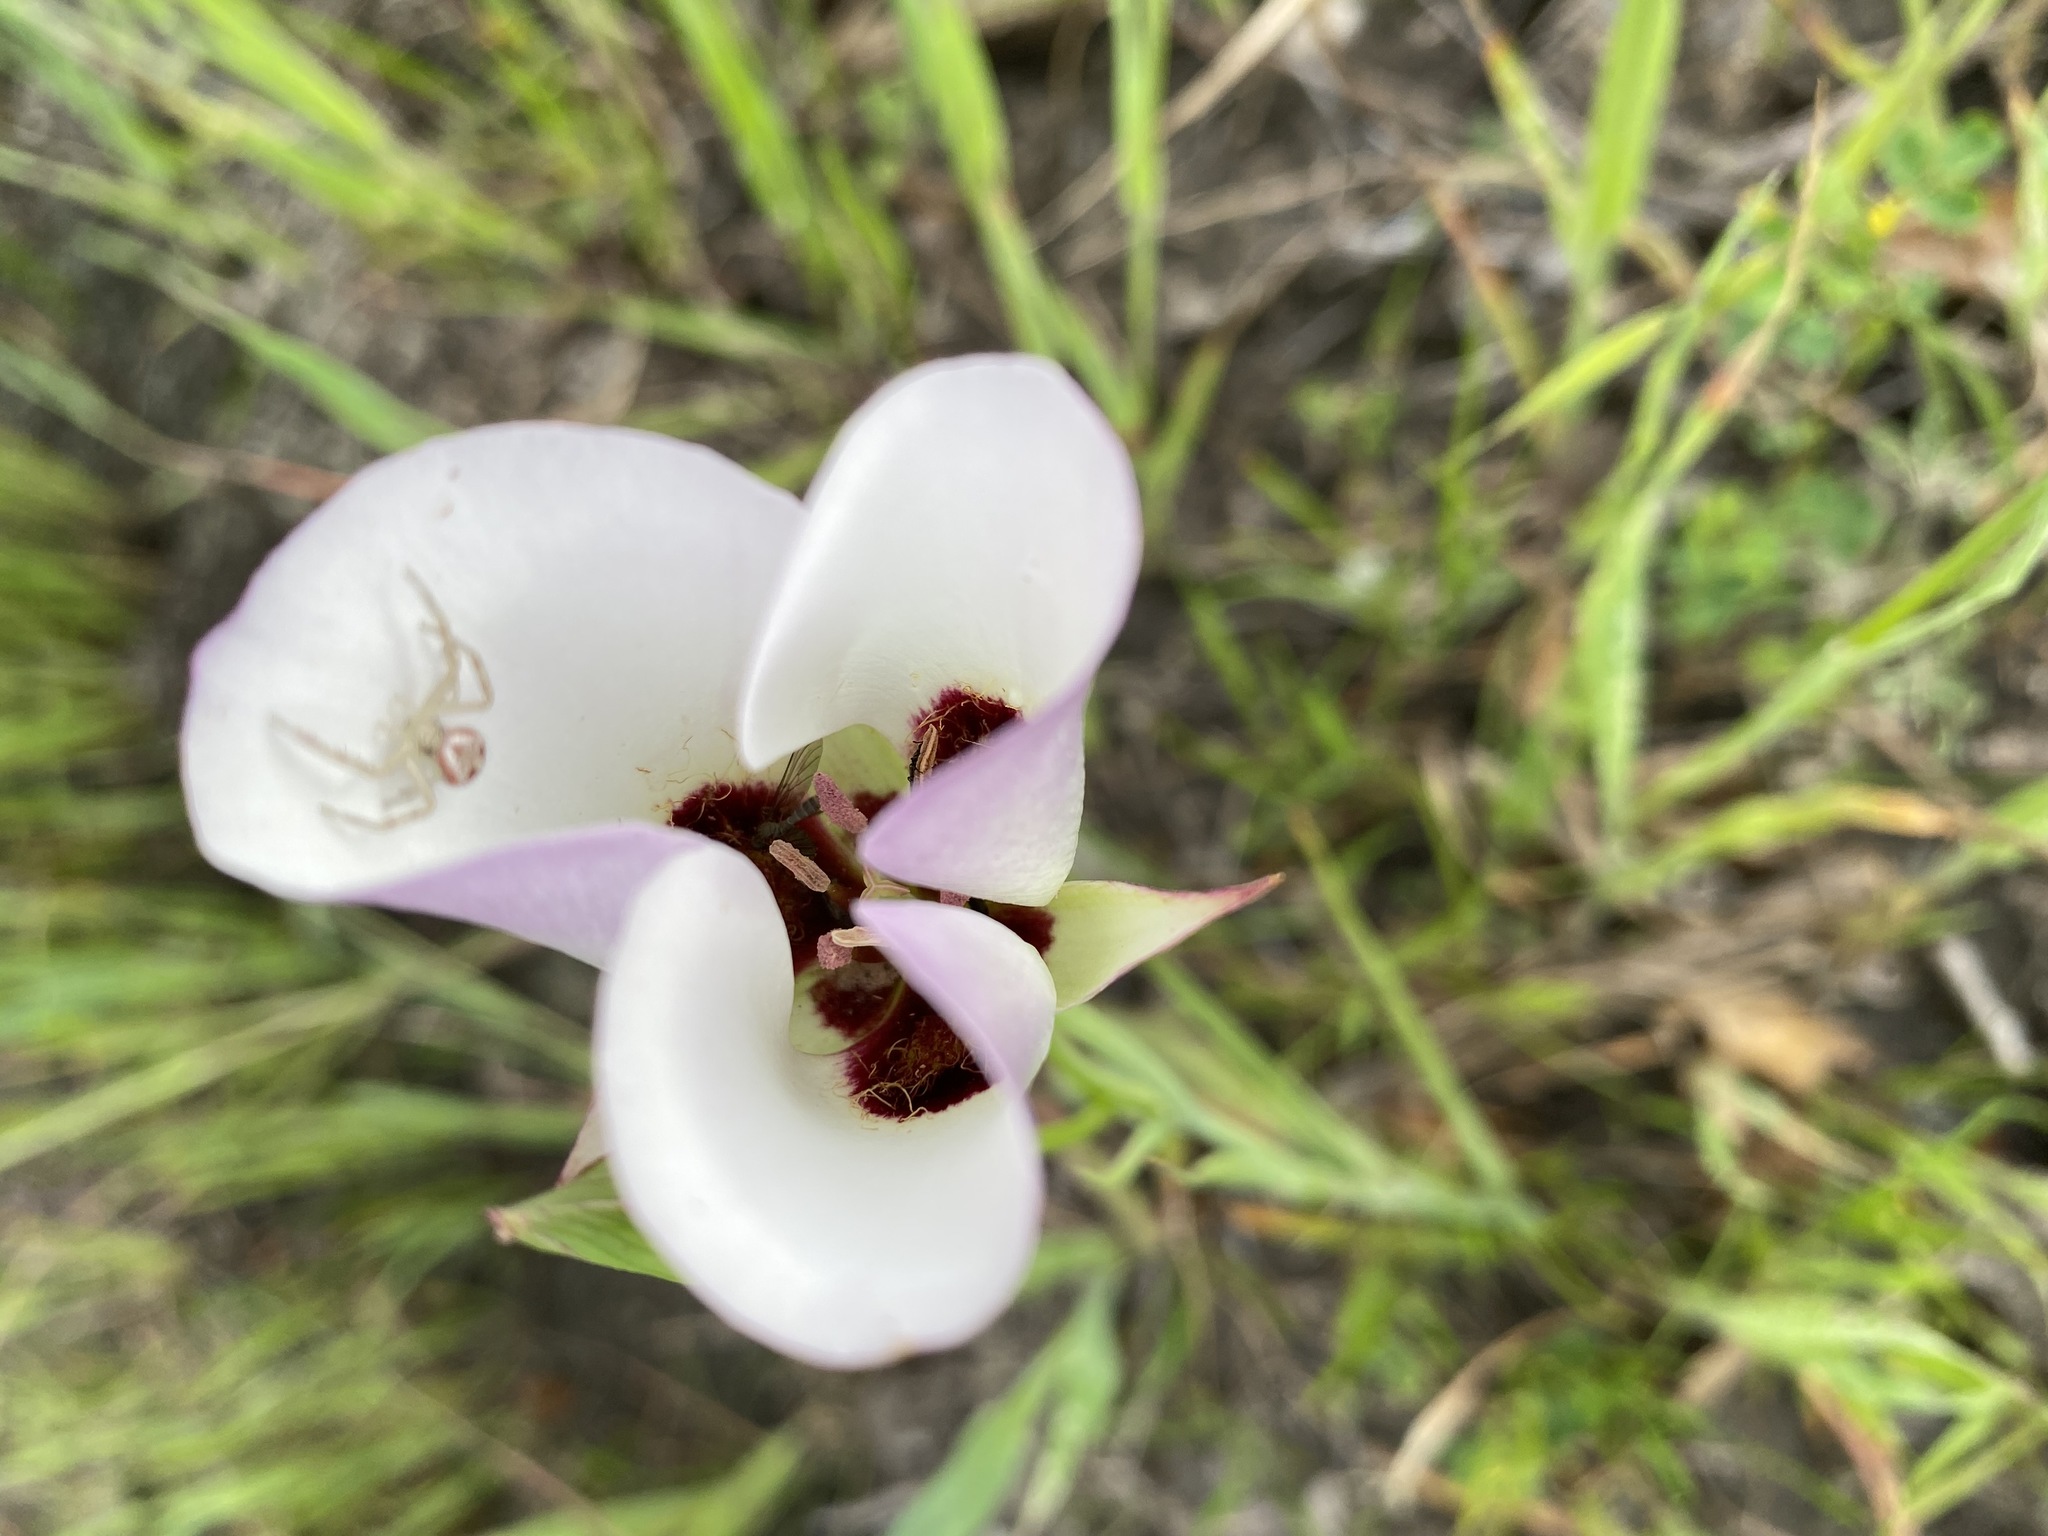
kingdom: Plantae
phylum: Tracheophyta
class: Liliopsida
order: Liliales
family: Liliaceae
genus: Calochortus
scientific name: Calochortus catalinae
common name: Catalina mariposa-lily
